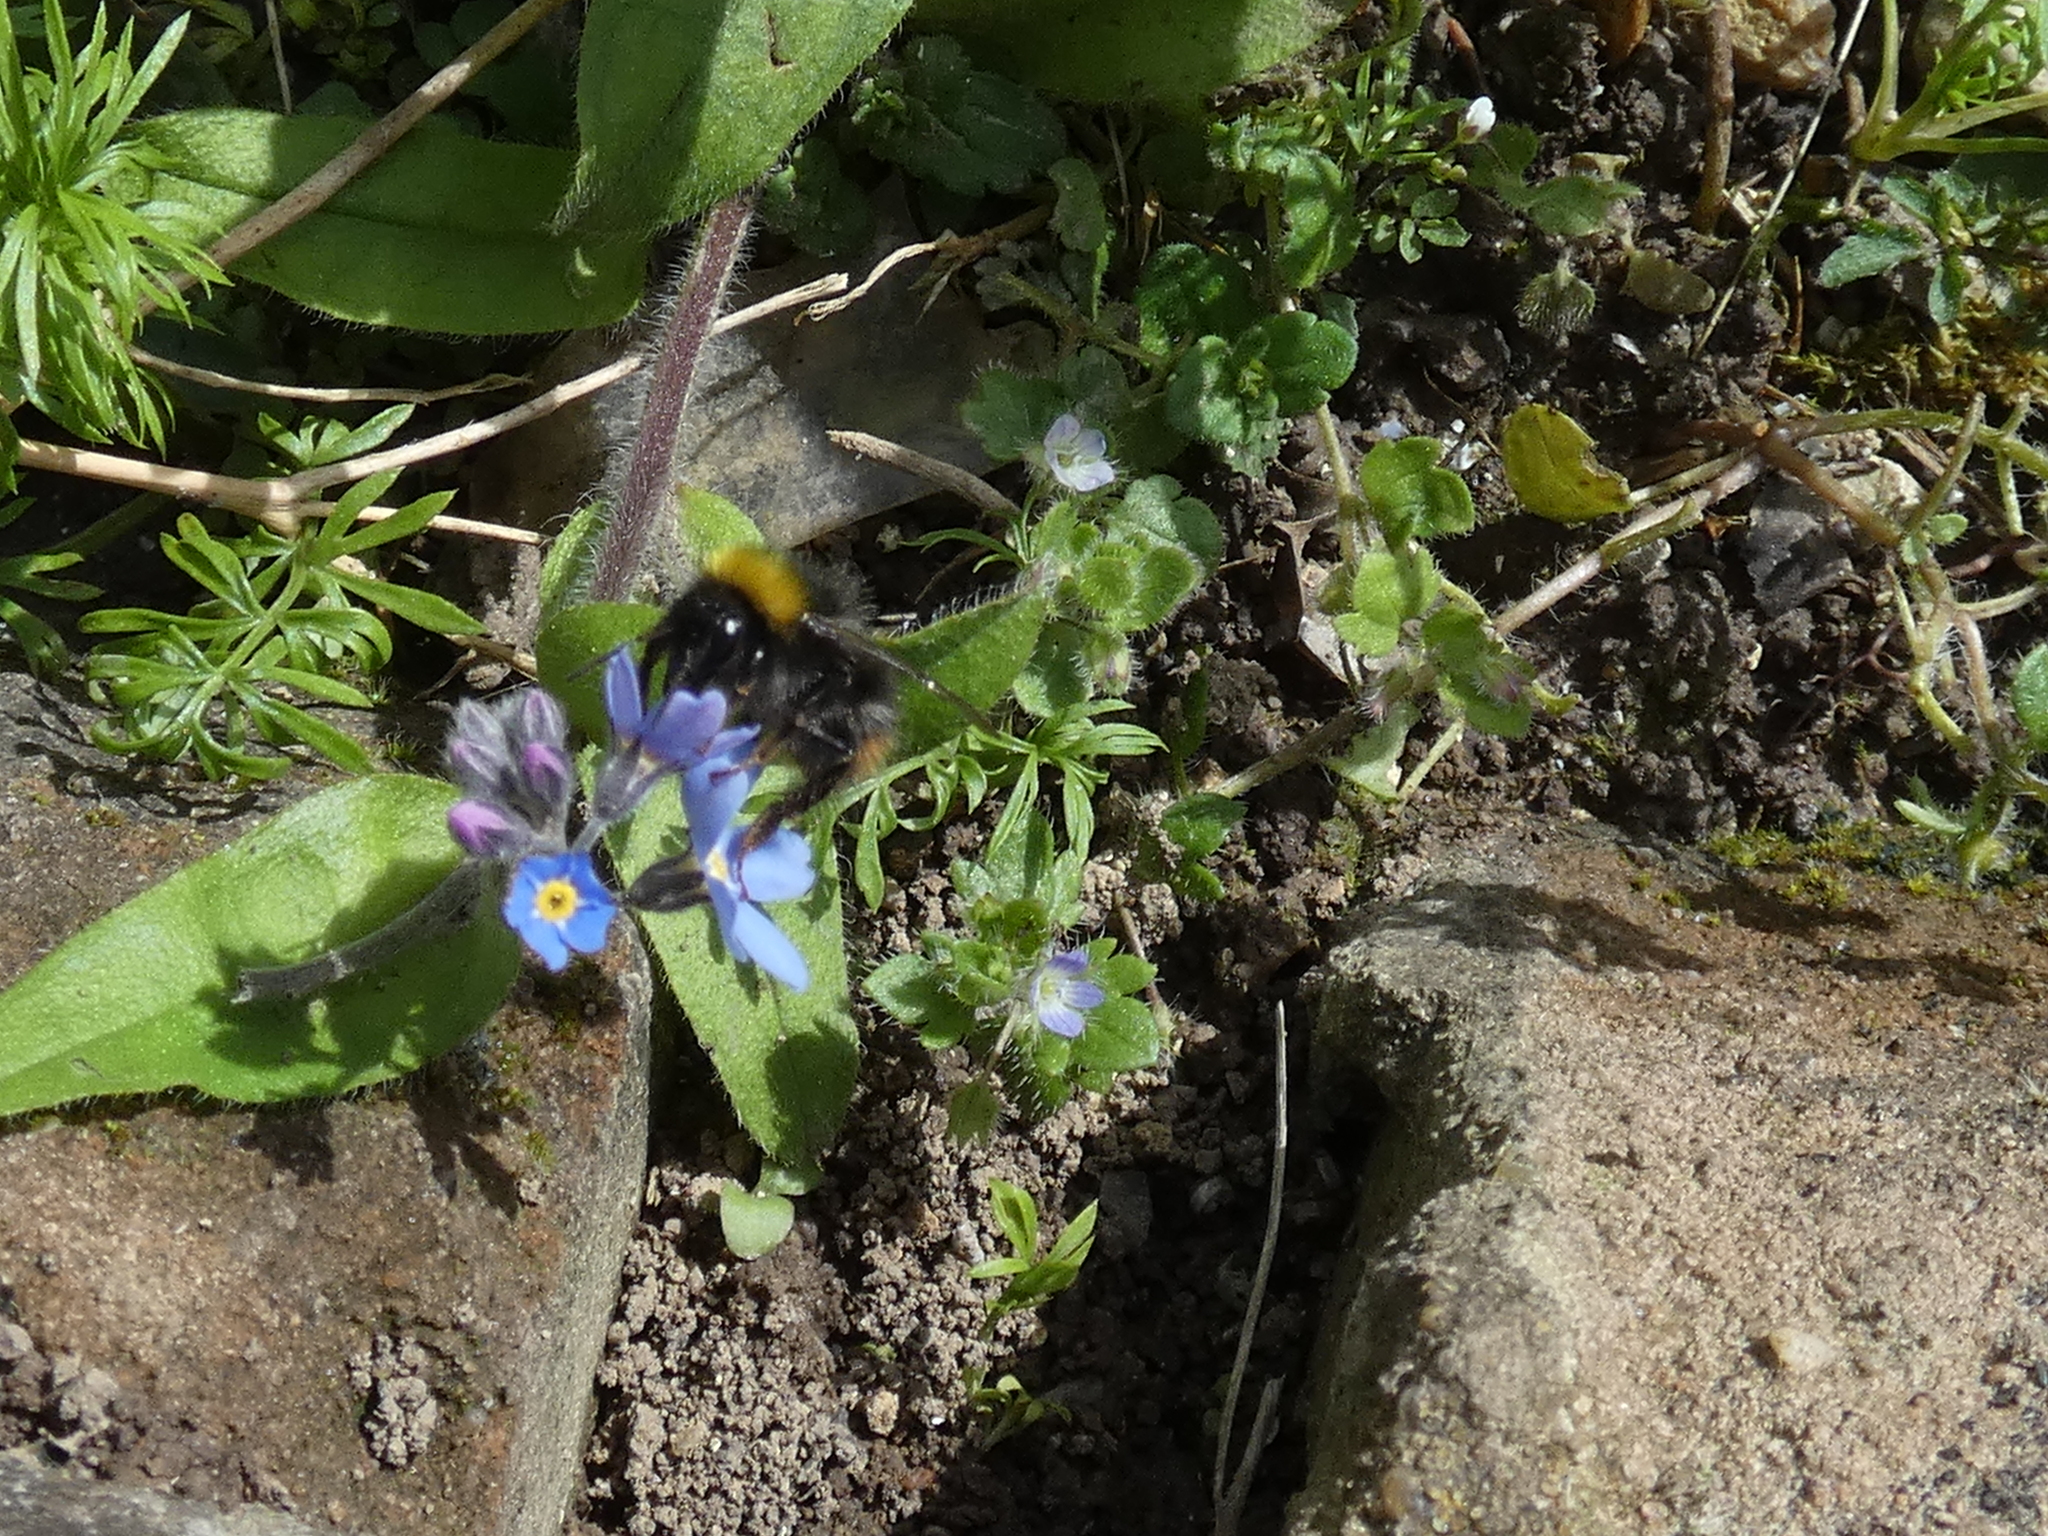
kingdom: Animalia
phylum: Arthropoda
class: Insecta
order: Hymenoptera
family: Apidae
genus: Bombus
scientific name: Bombus pratorum
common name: Early humble-bee
